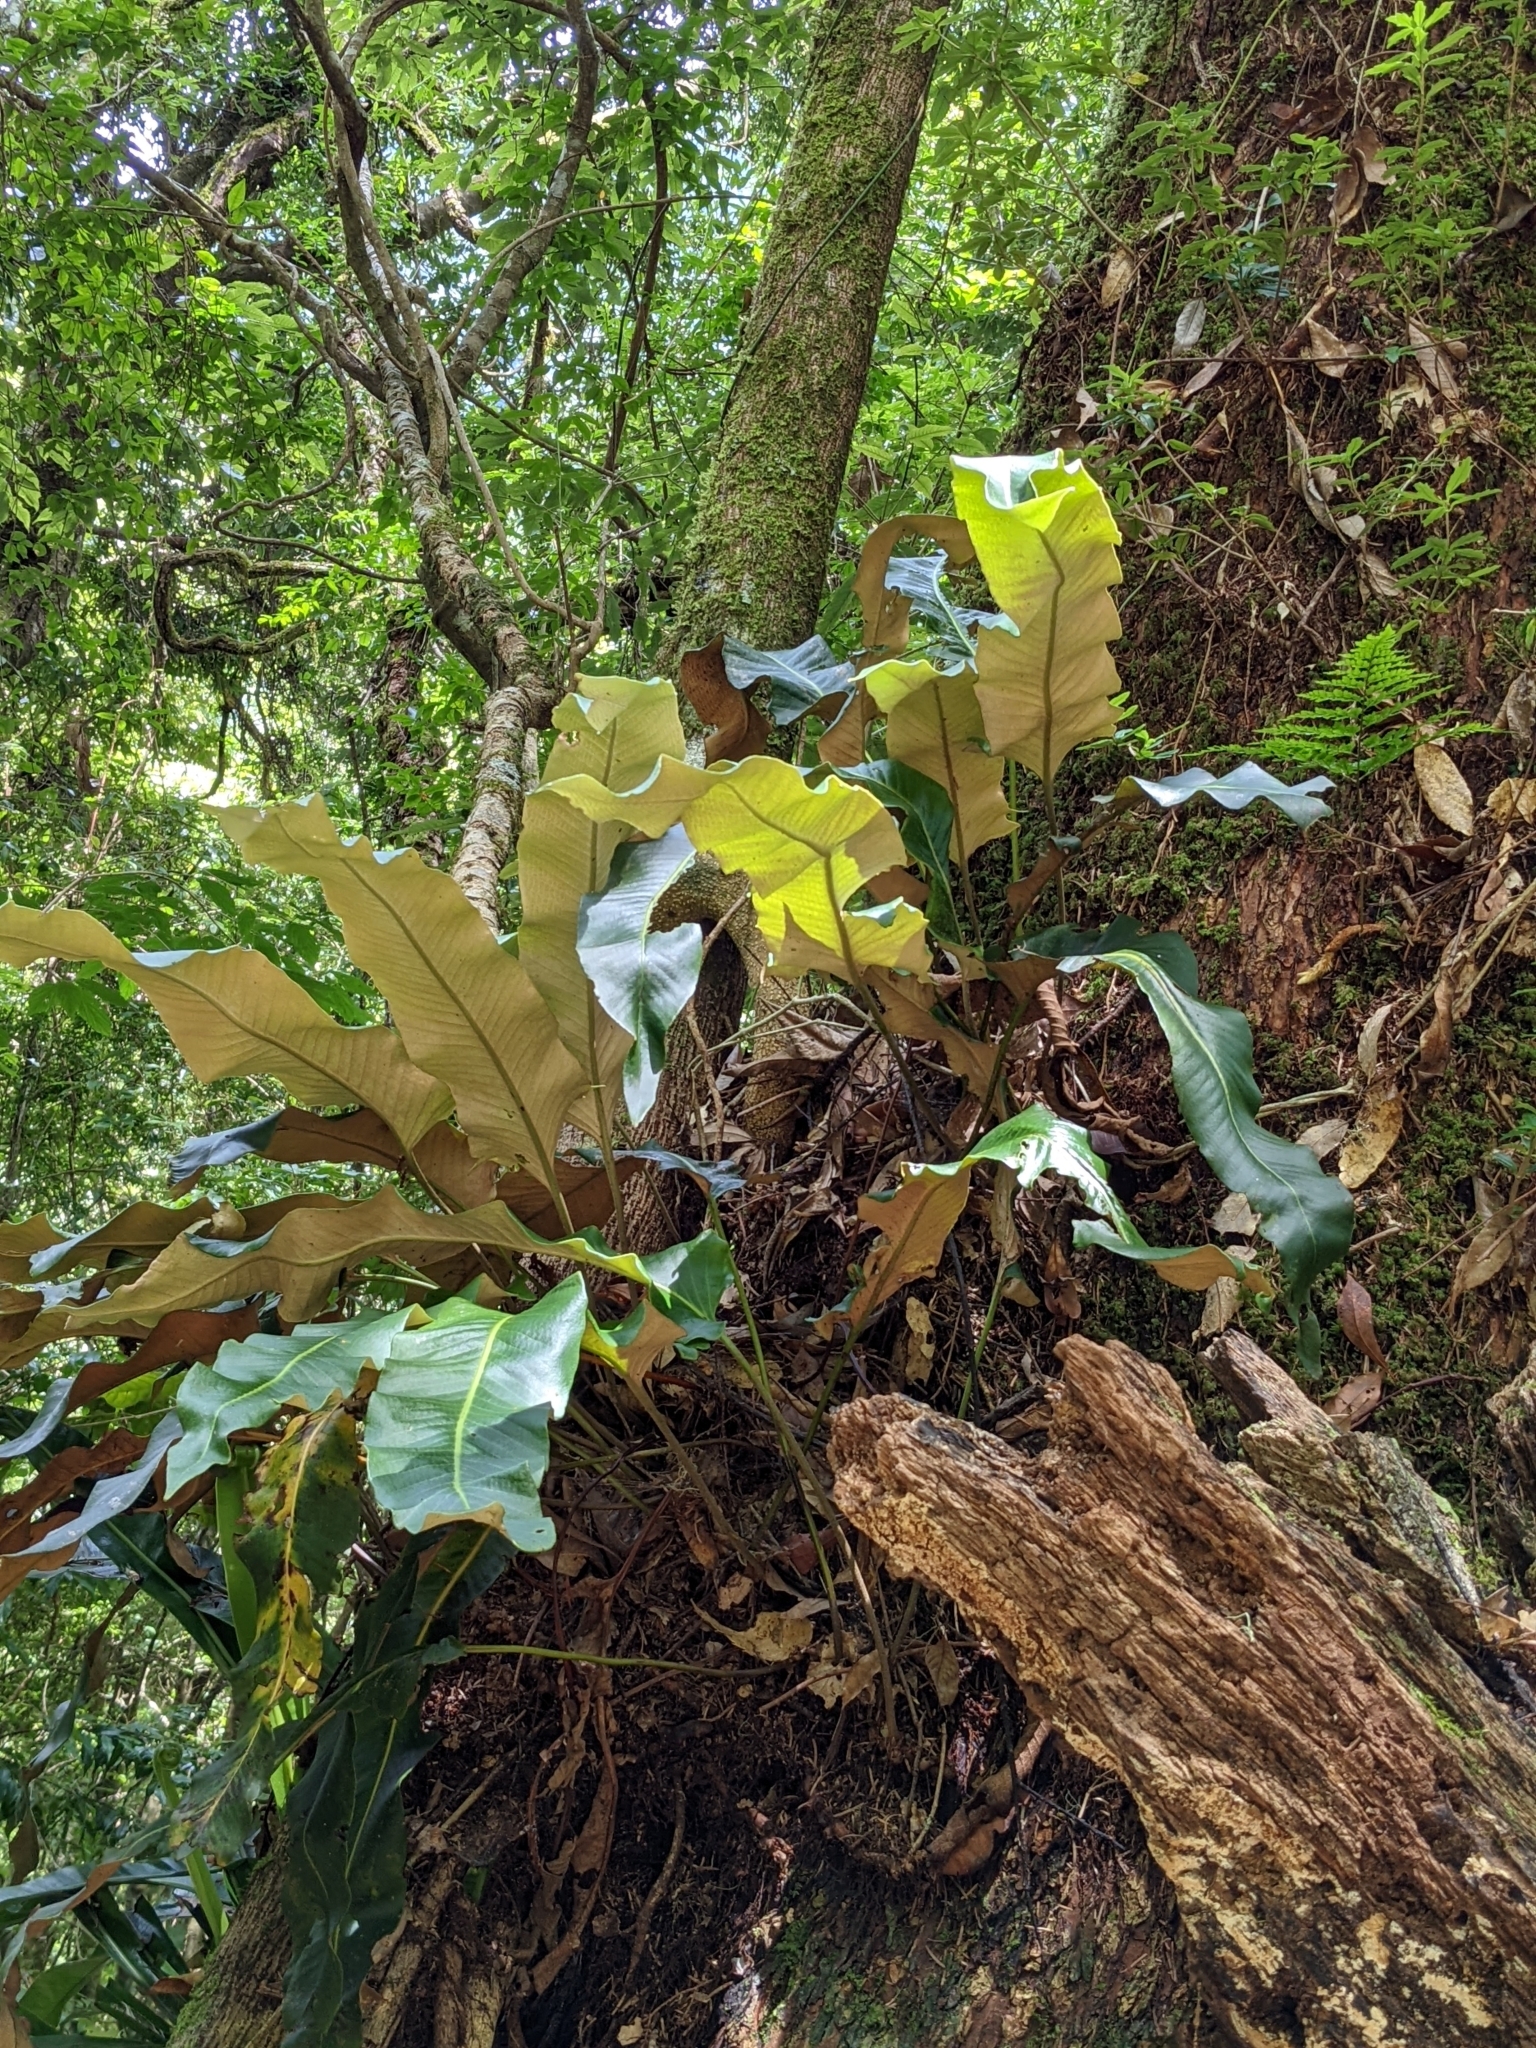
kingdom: Plantae
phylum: Tracheophyta
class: Polypodiopsida
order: Polypodiales
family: Polypodiaceae
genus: Pyrrosia
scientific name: Pyrrosia sheareri
